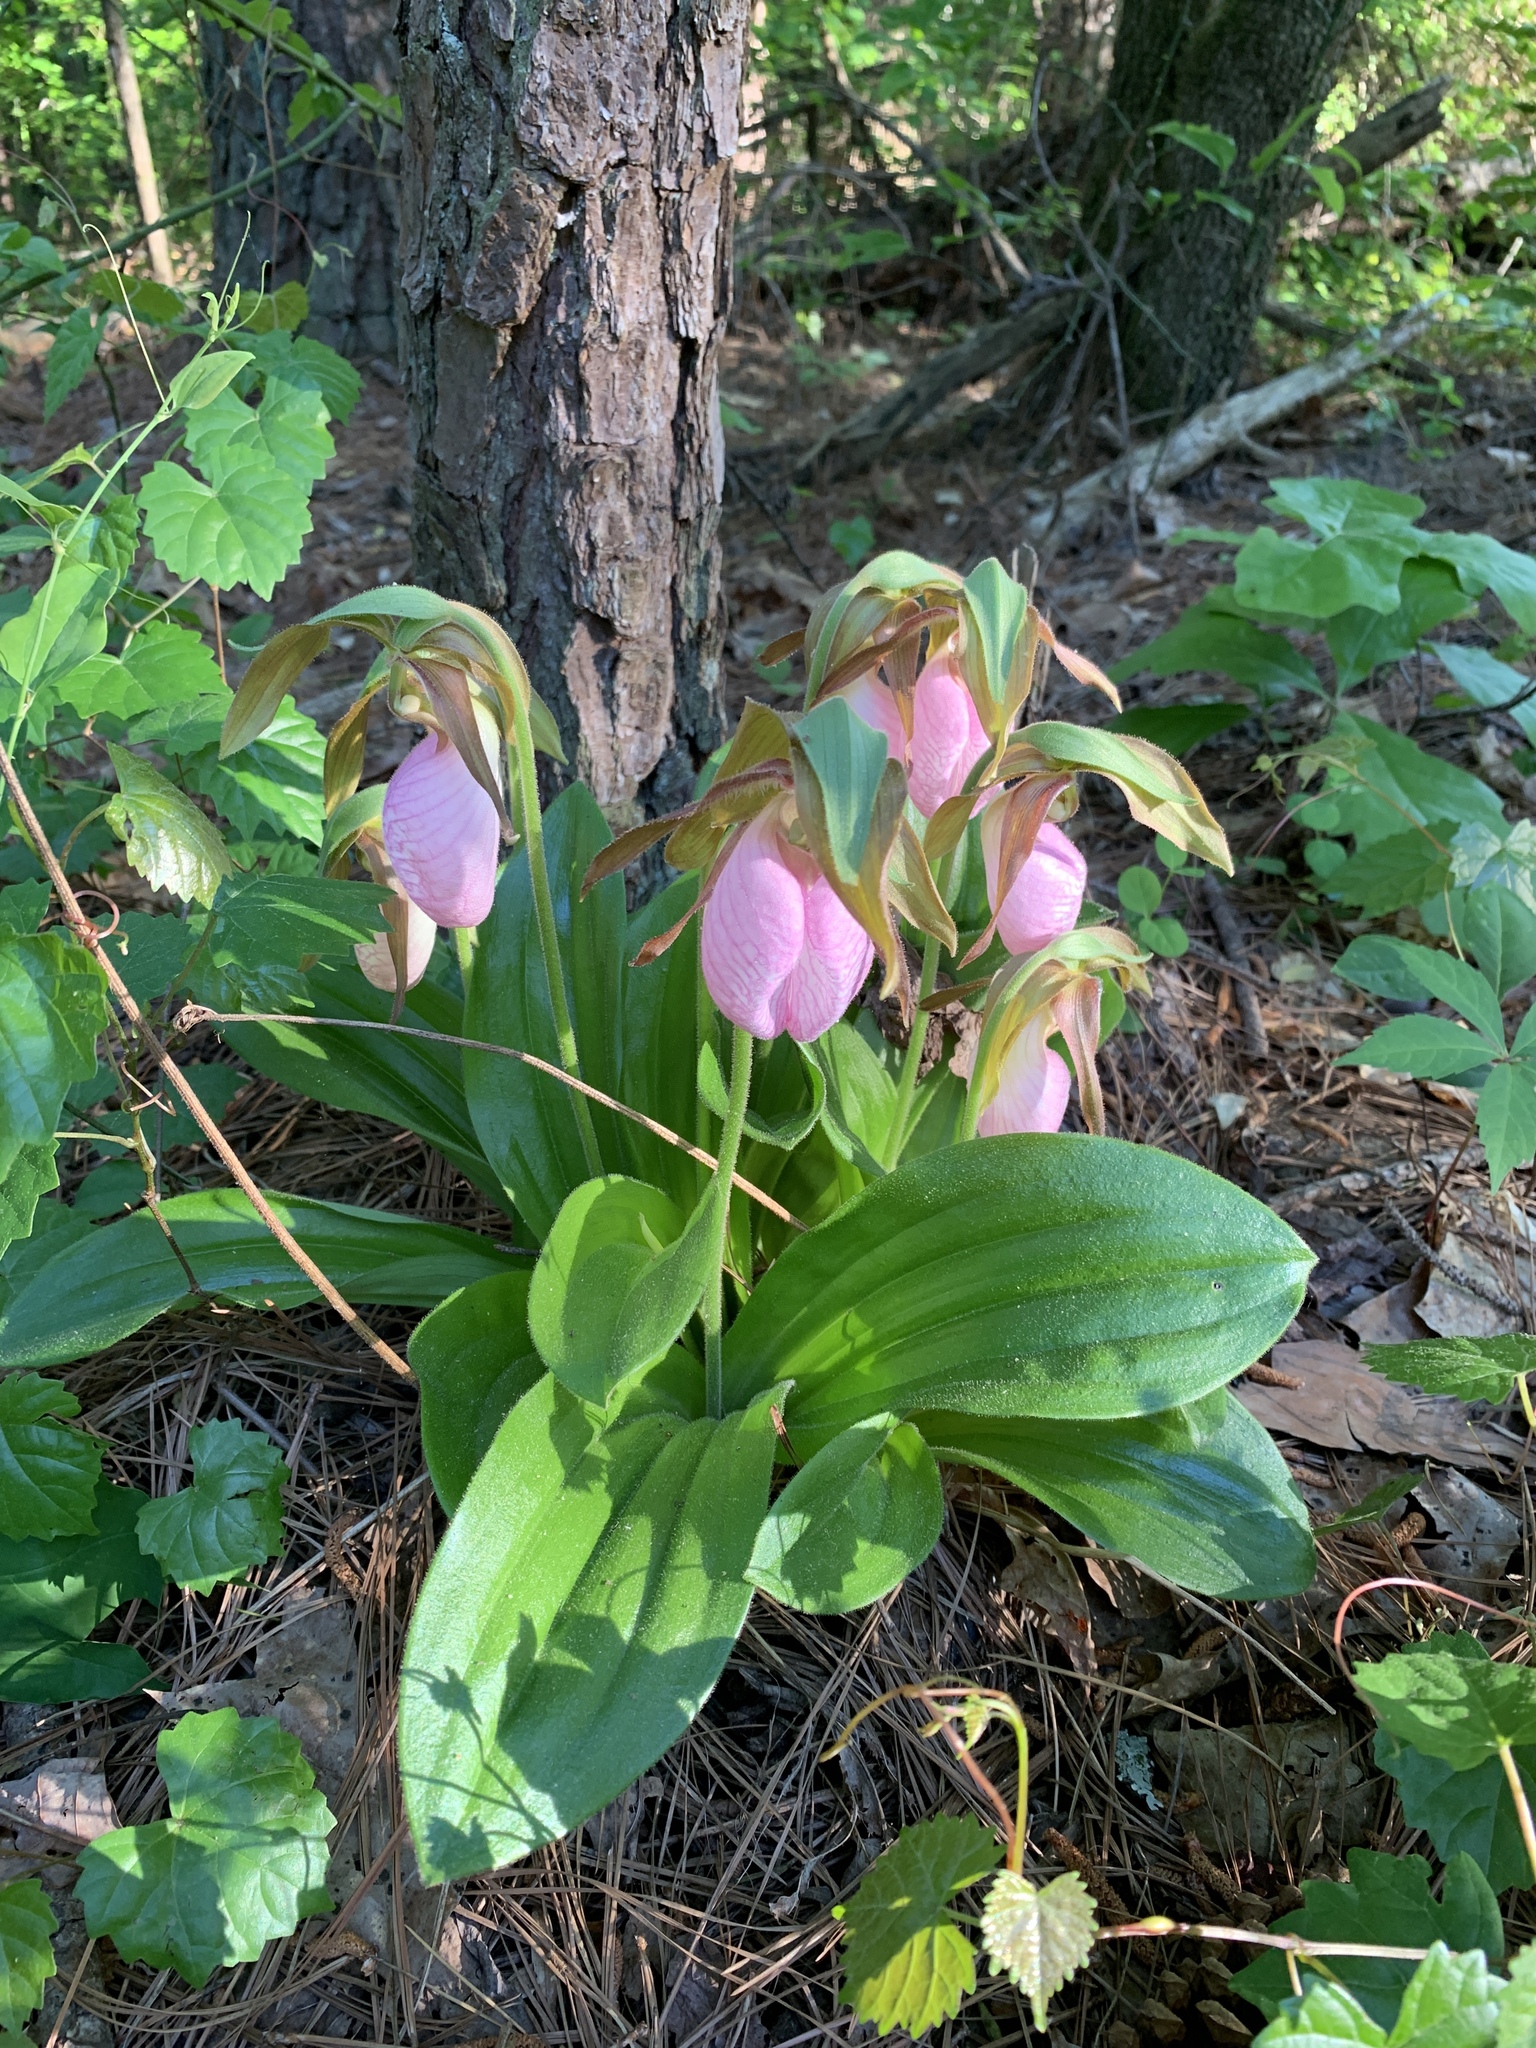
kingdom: Plantae
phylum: Tracheophyta
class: Liliopsida
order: Asparagales
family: Orchidaceae
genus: Cypripedium
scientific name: Cypripedium acaule
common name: Pink lady's-slipper
